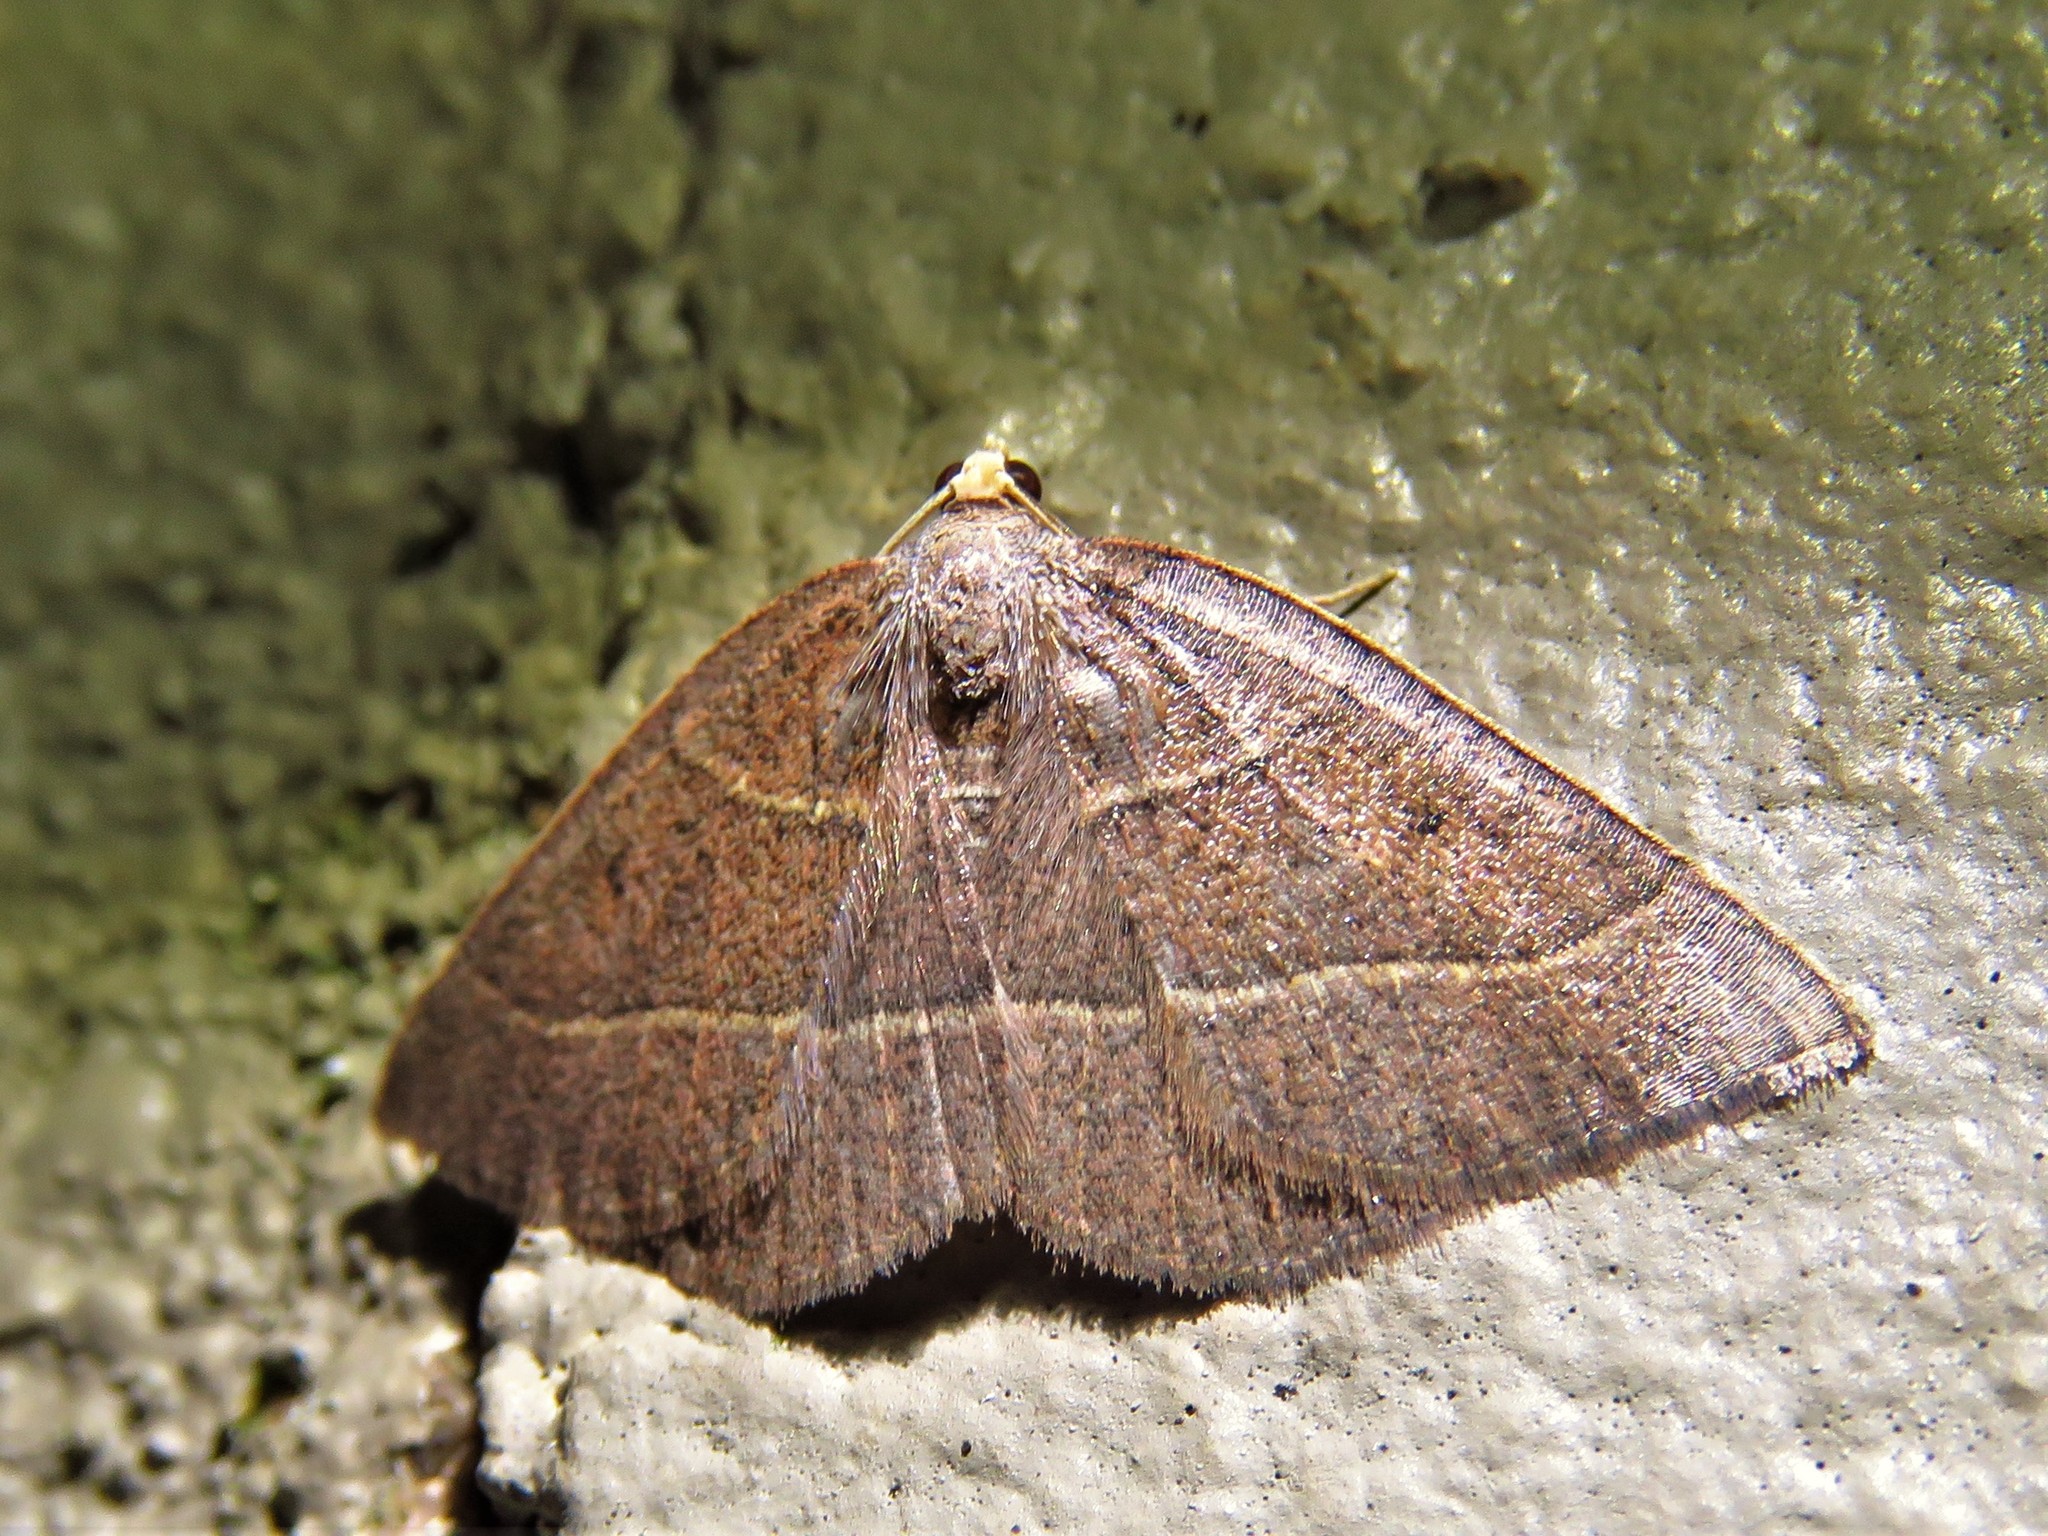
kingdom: Animalia
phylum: Arthropoda
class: Insecta
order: Lepidoptera
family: Geometridae
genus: Episemasia
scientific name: Episemasia cervinaria
